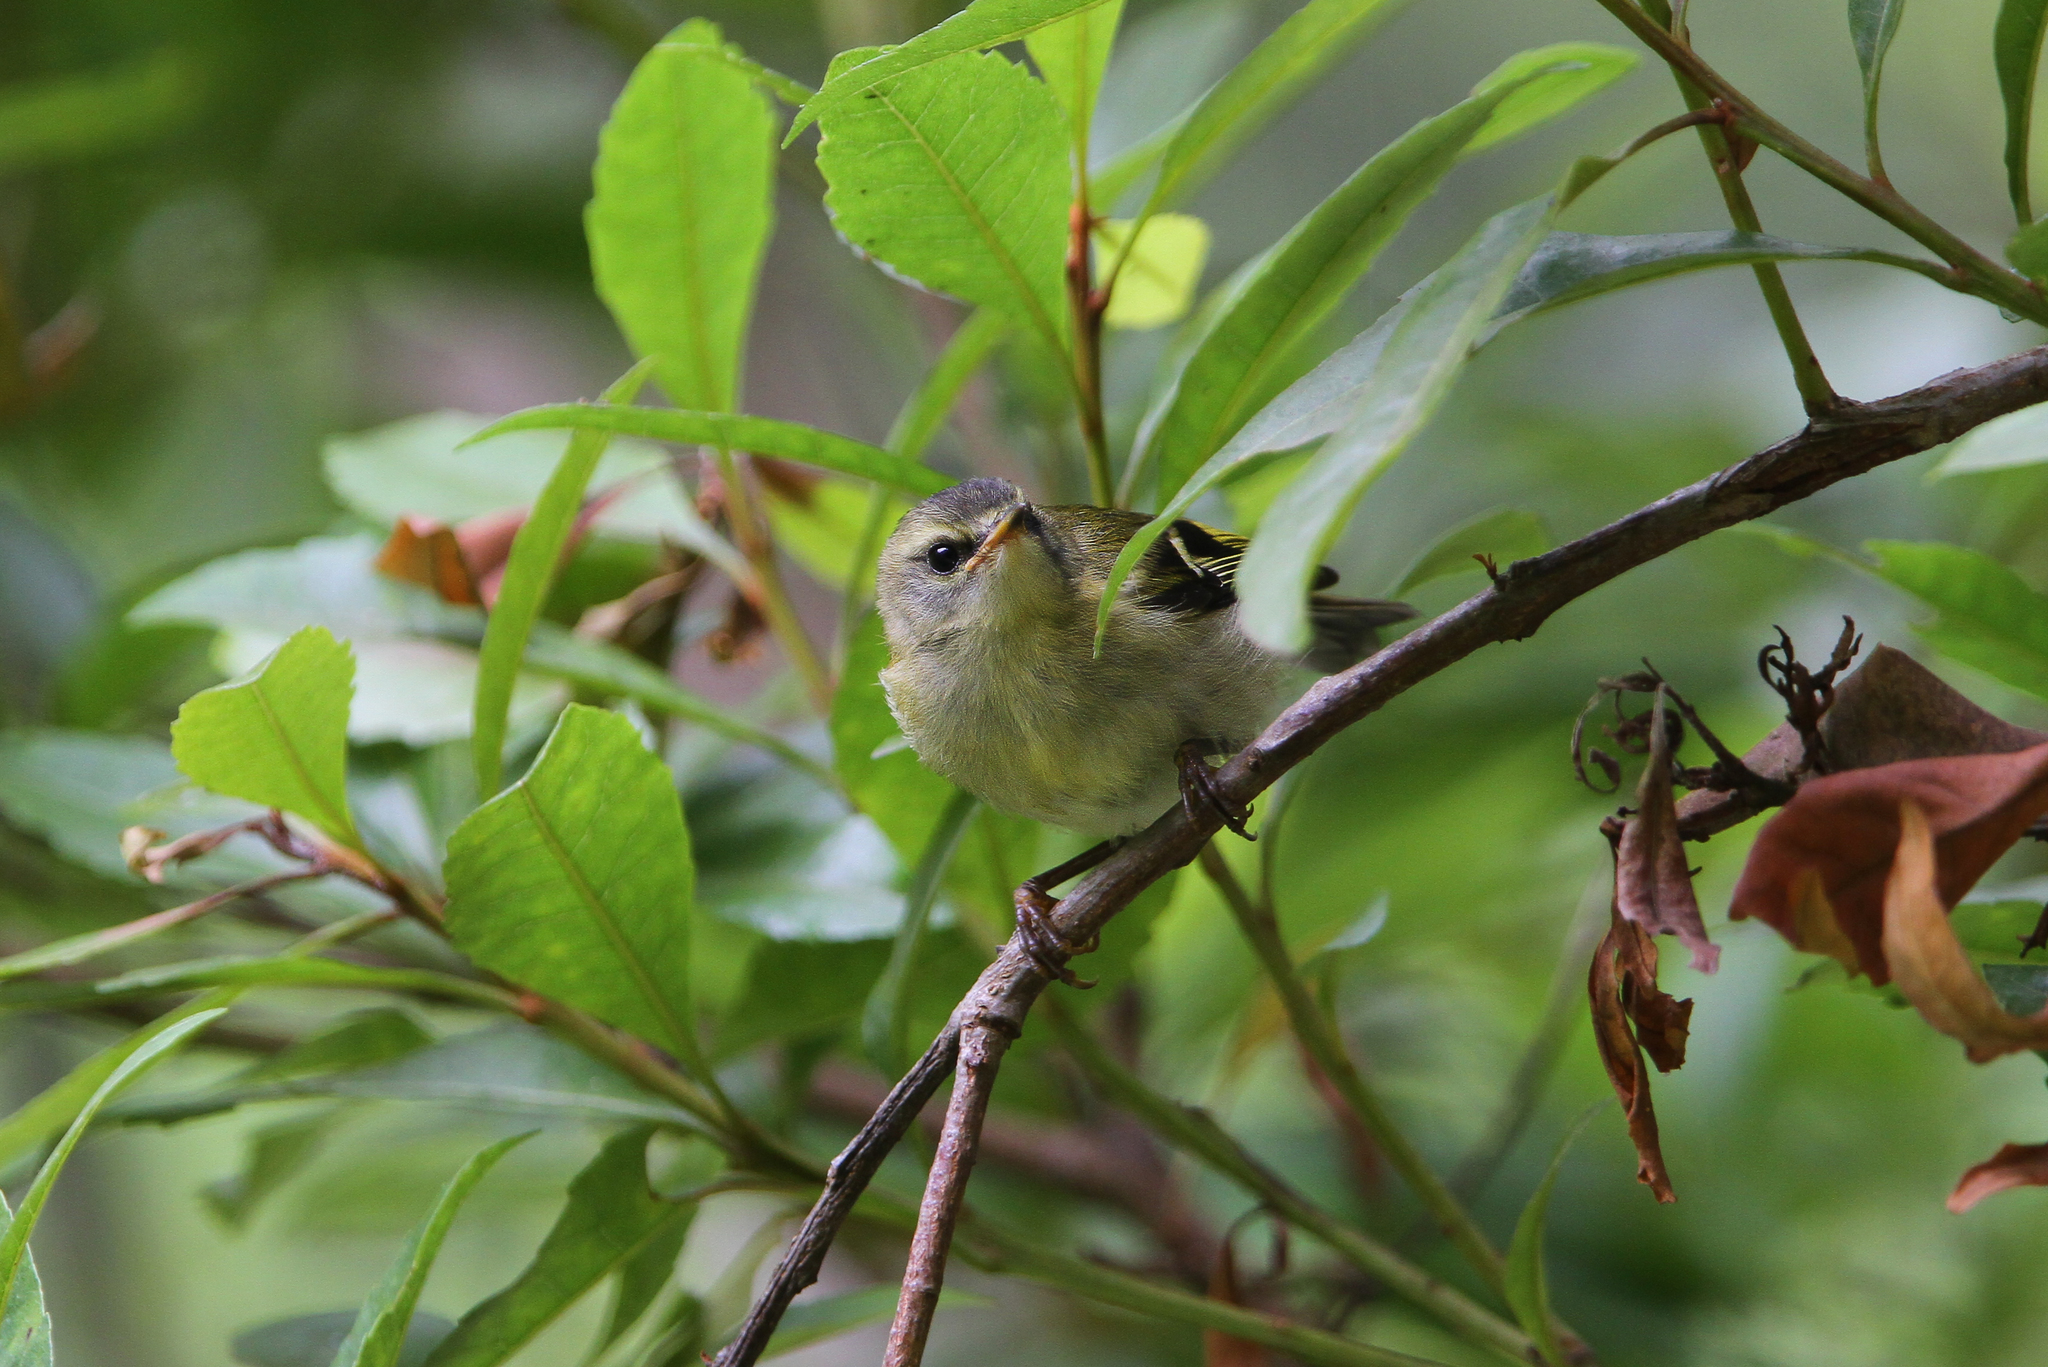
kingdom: Animalia
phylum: Chordata
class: Aves
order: Passeriformes
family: Regulidae
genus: Regulus
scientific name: Regulus madeirensis
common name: Madeira firecrest
